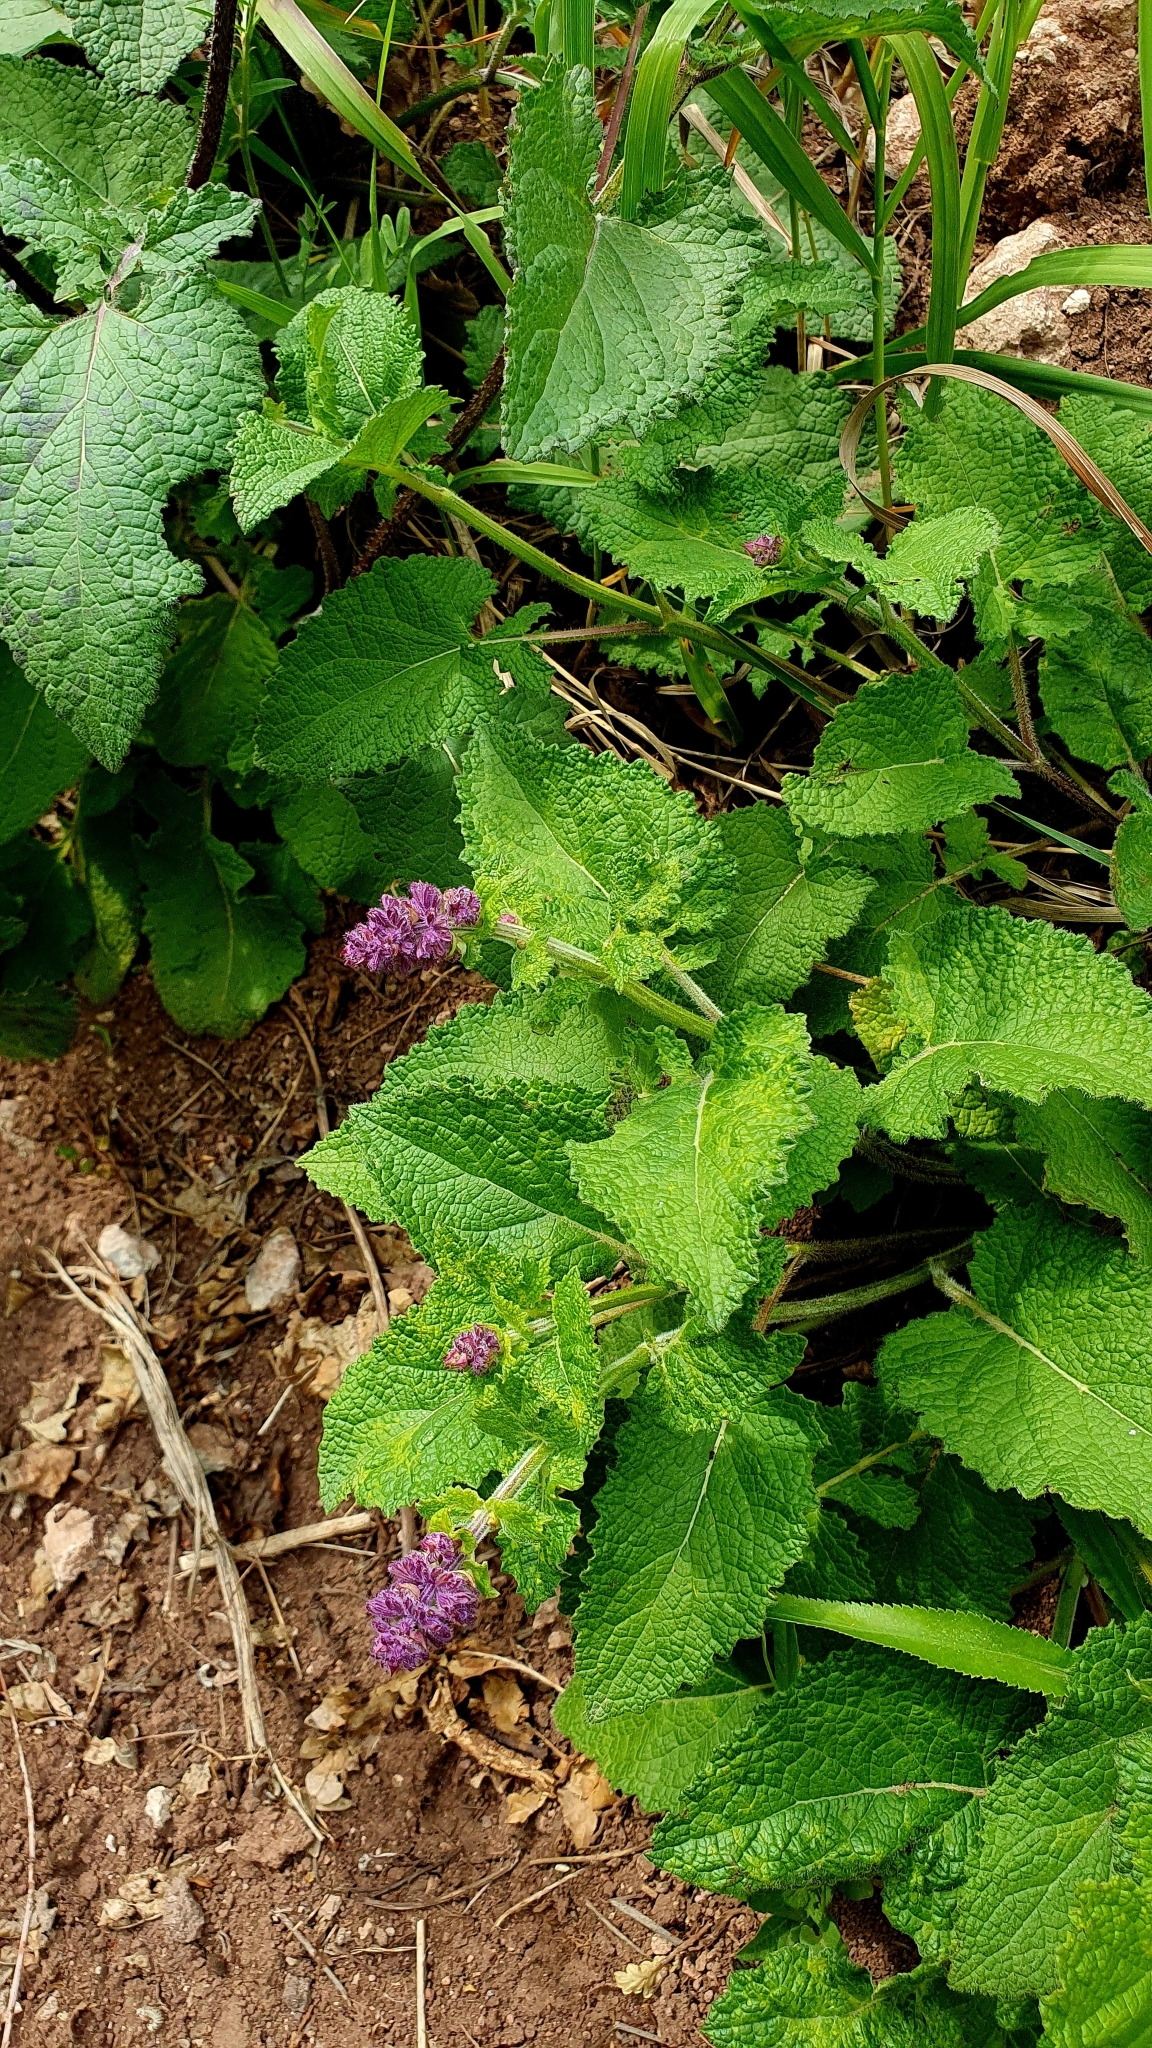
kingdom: Plantae
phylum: Tracheophyta
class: Magnoliopsida
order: Lamiales
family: Lamiaceae
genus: Salvia
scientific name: Salvia verticillata
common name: Whorled clary
